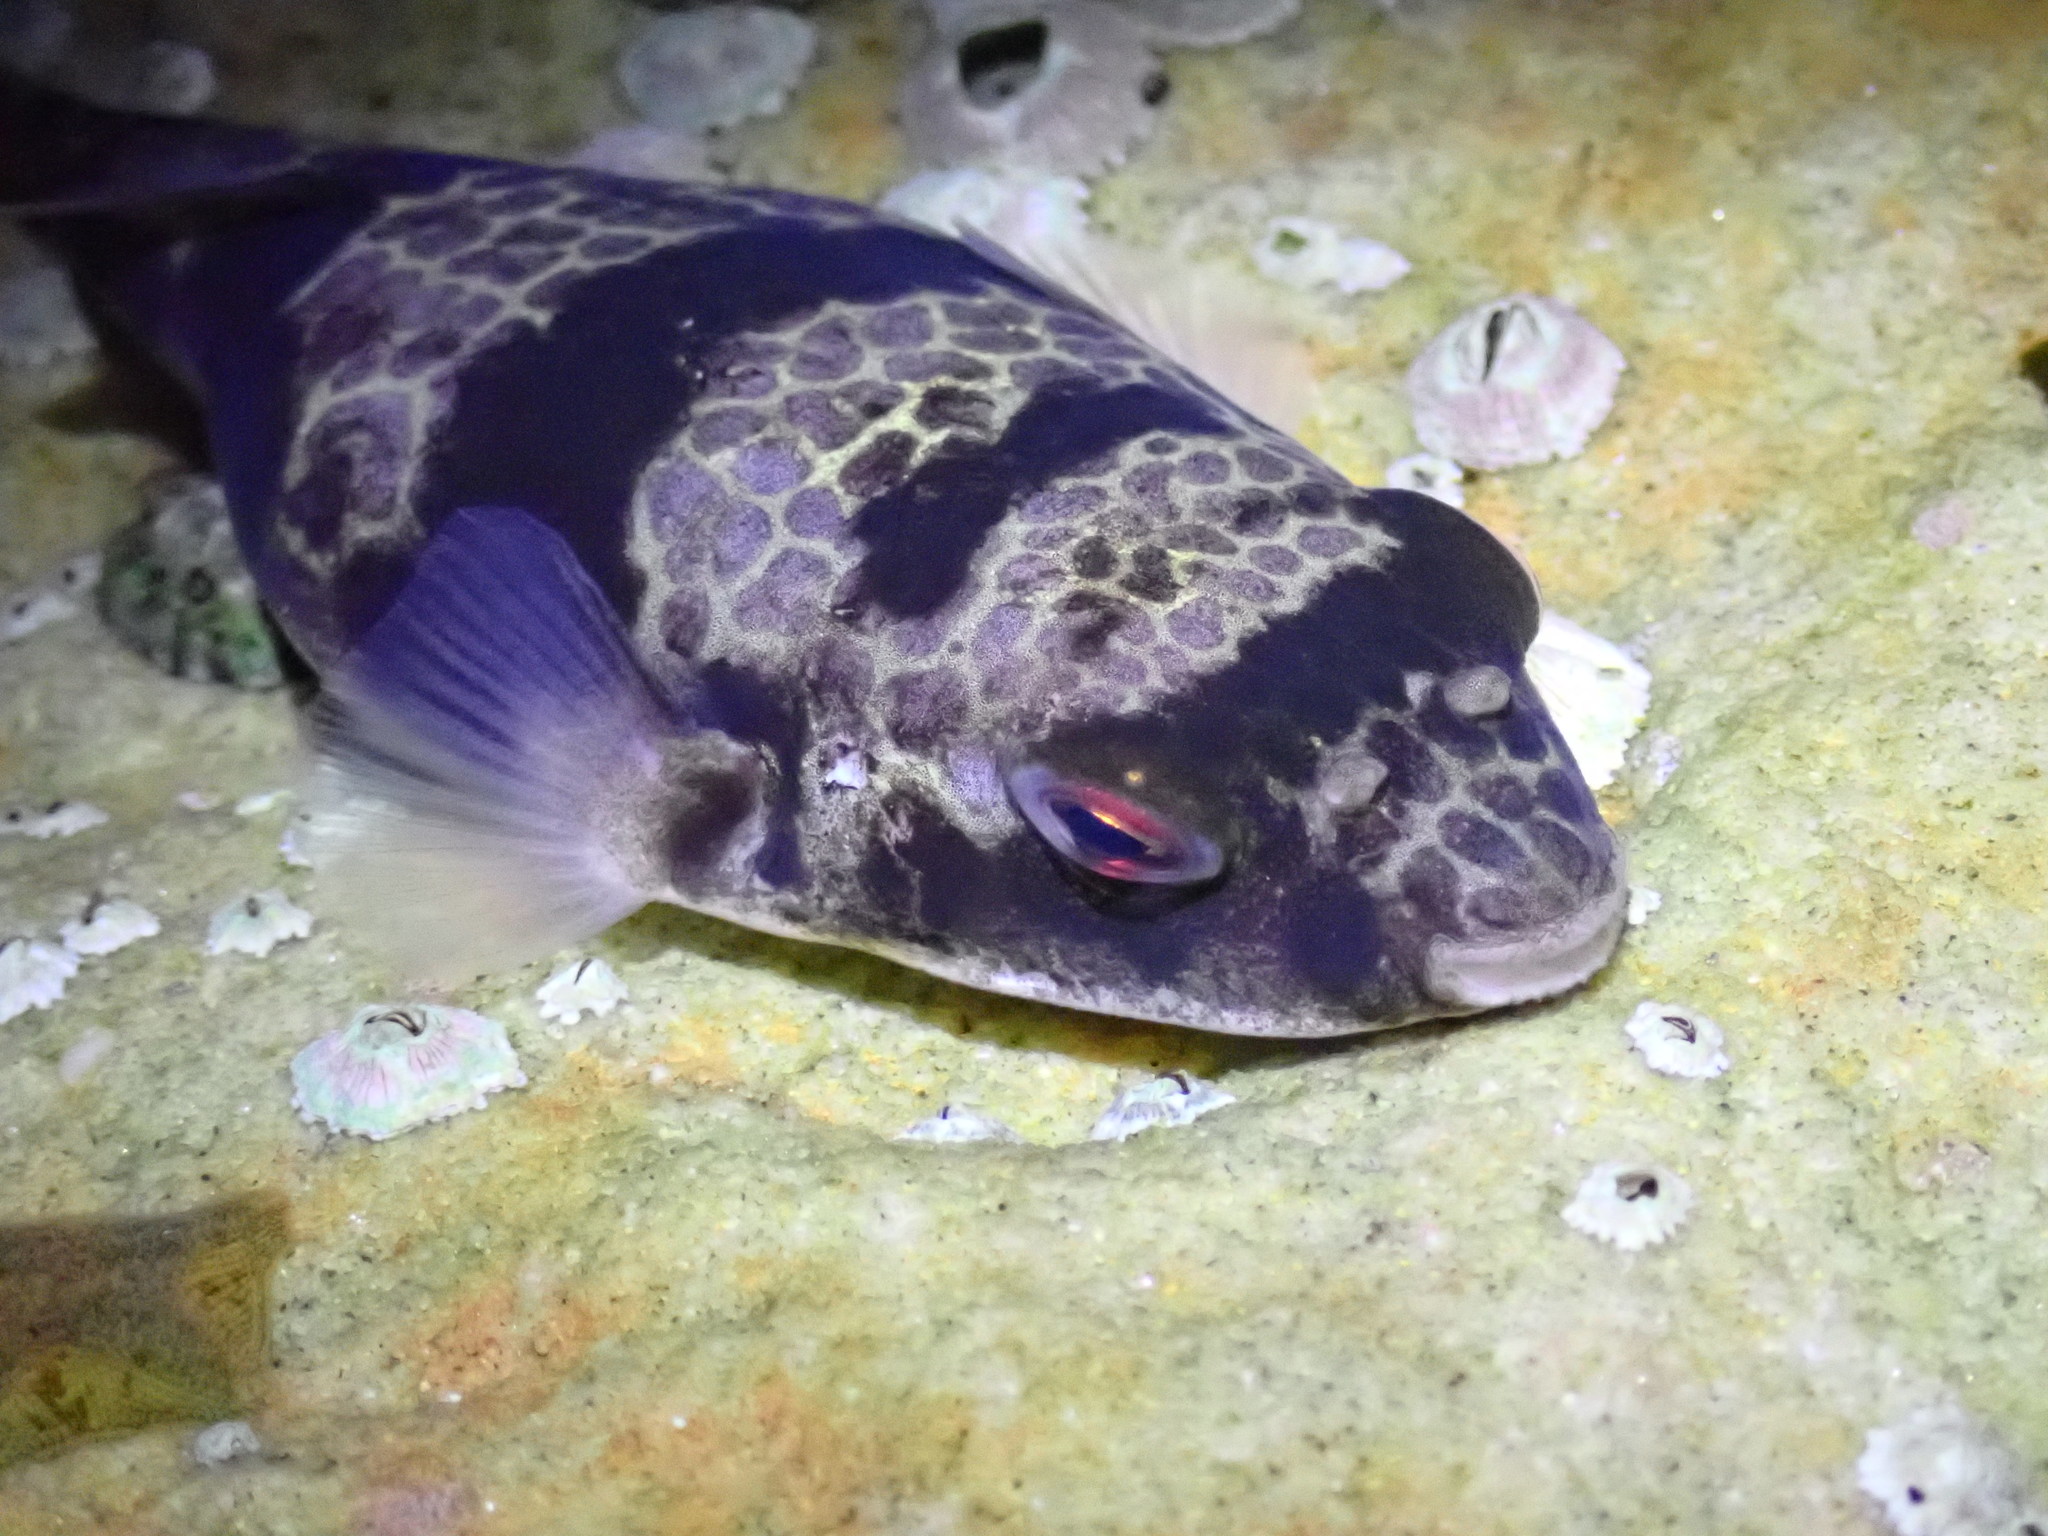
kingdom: Animalia
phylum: Chordata
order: Tetraodontiformes
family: Tetraodontidae
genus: Tetractenos
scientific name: Tetractenos glaber
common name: Smooth toadfish
